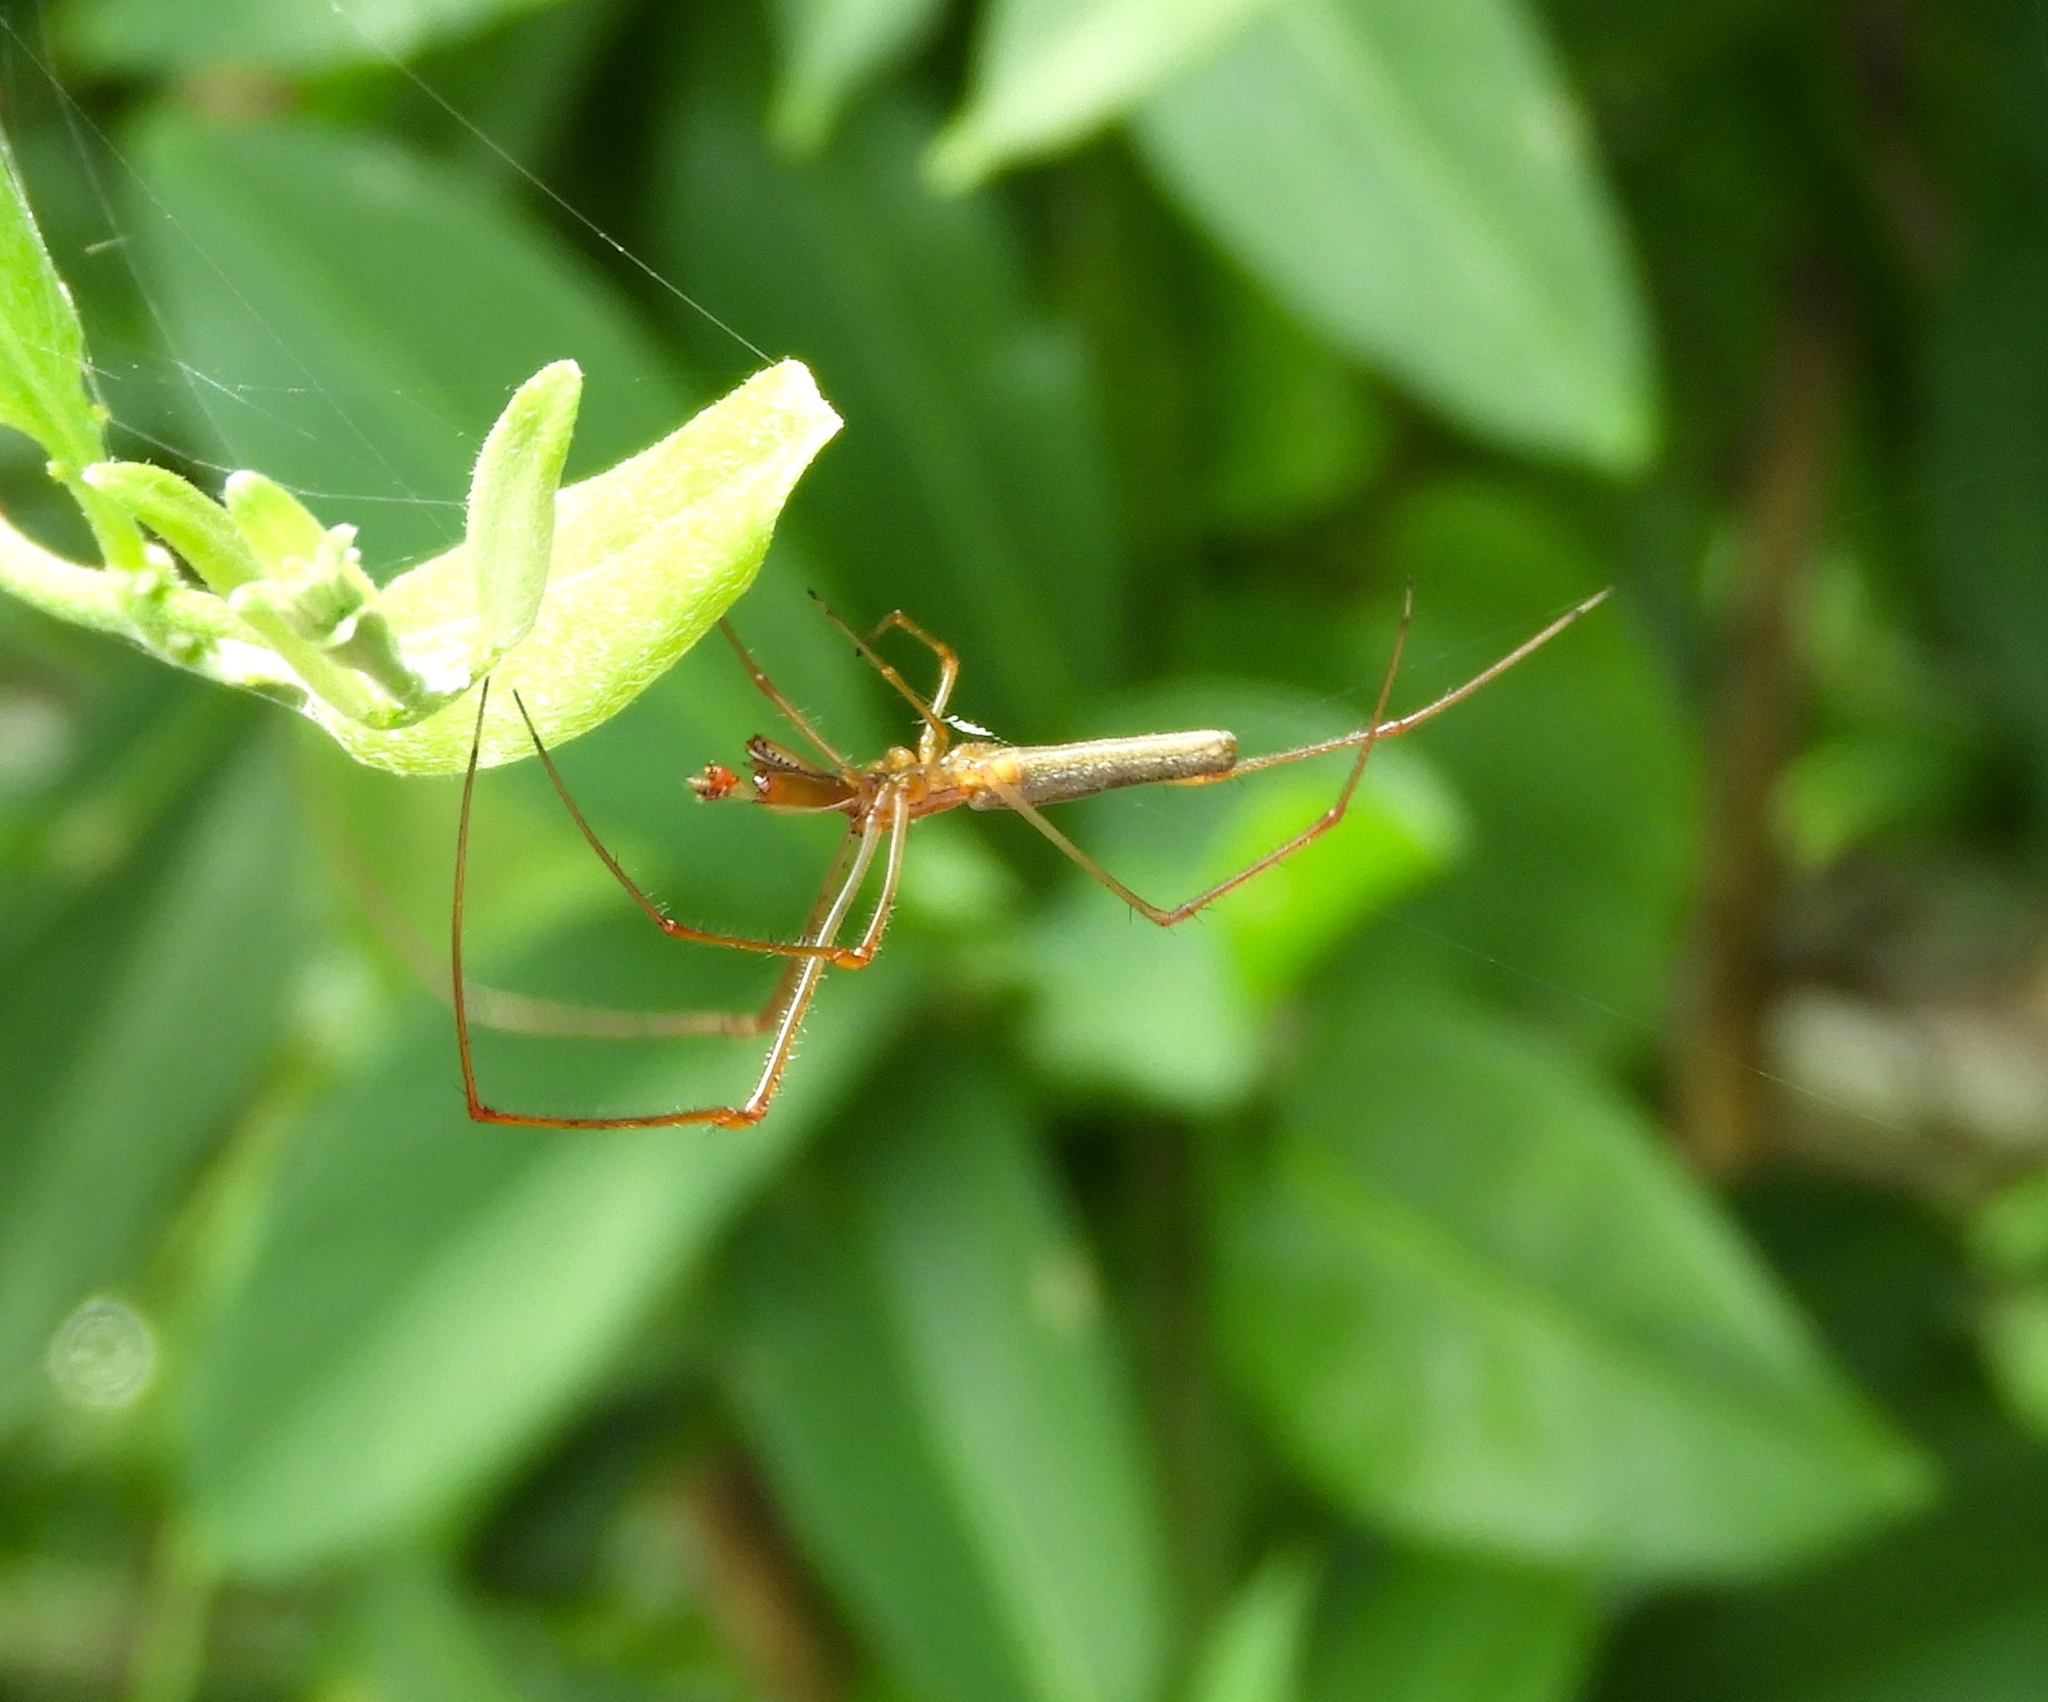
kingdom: Animalia
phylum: Arthropoda
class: Arachnida
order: Araneae
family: Tetragnathidae
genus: Tetragnatha
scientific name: Tetragnatha
